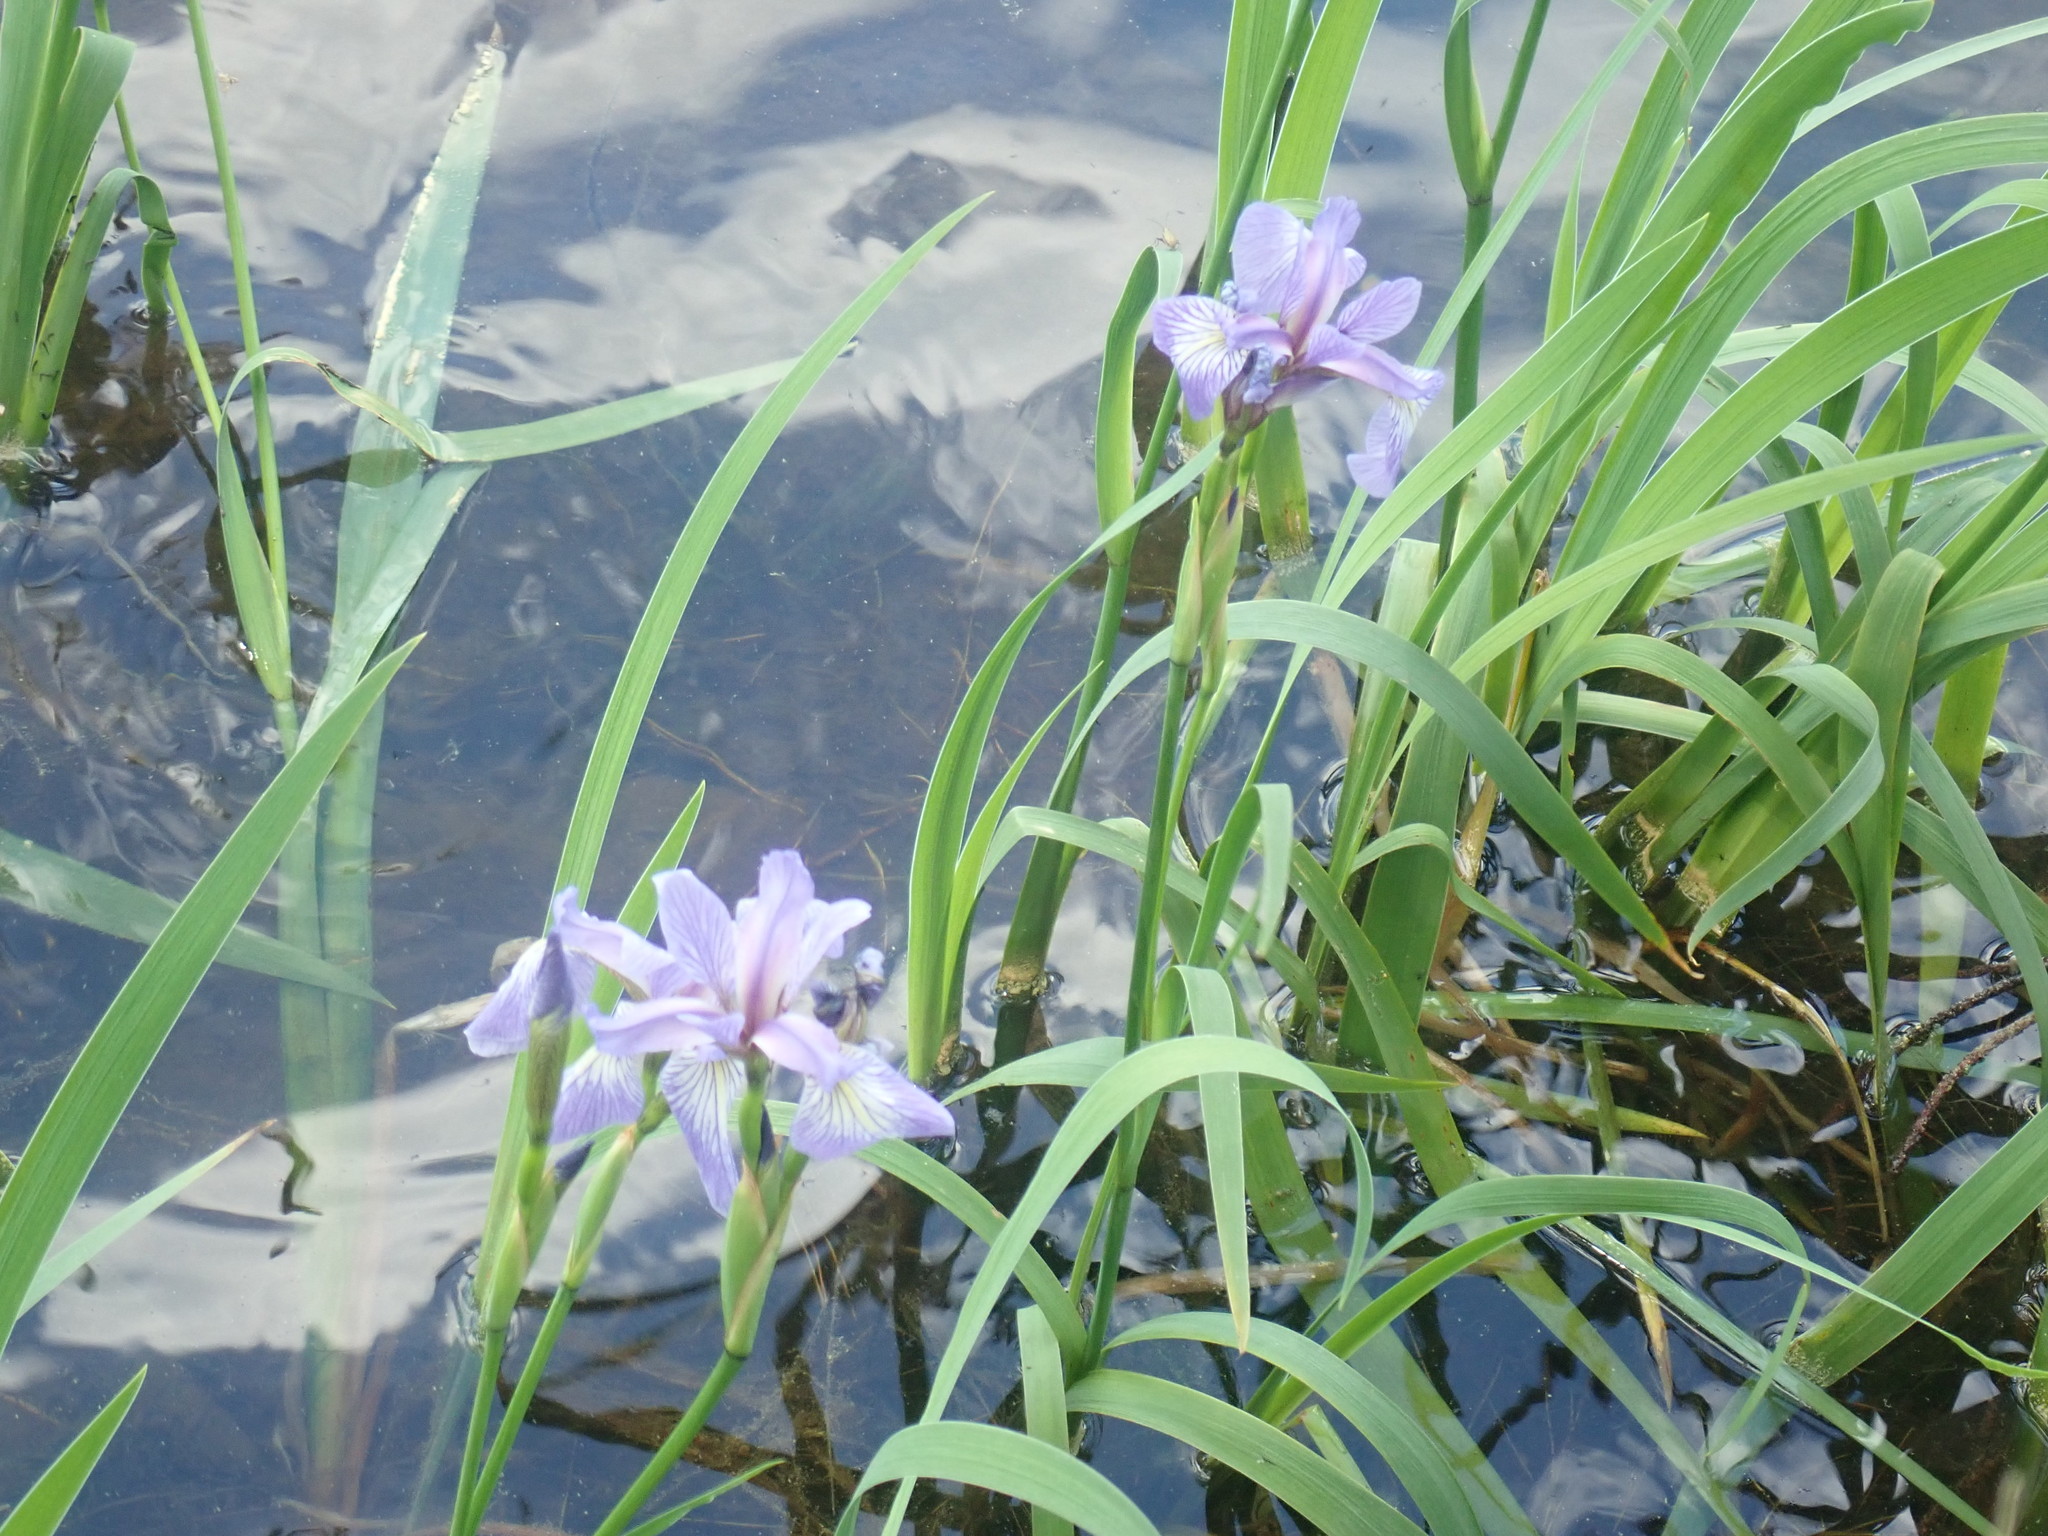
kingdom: Plantae
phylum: Tracheophyta
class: Liliopsida
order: Asparagales
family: Iridaceae
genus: Iris
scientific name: Iris versicolor
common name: Purple iris
